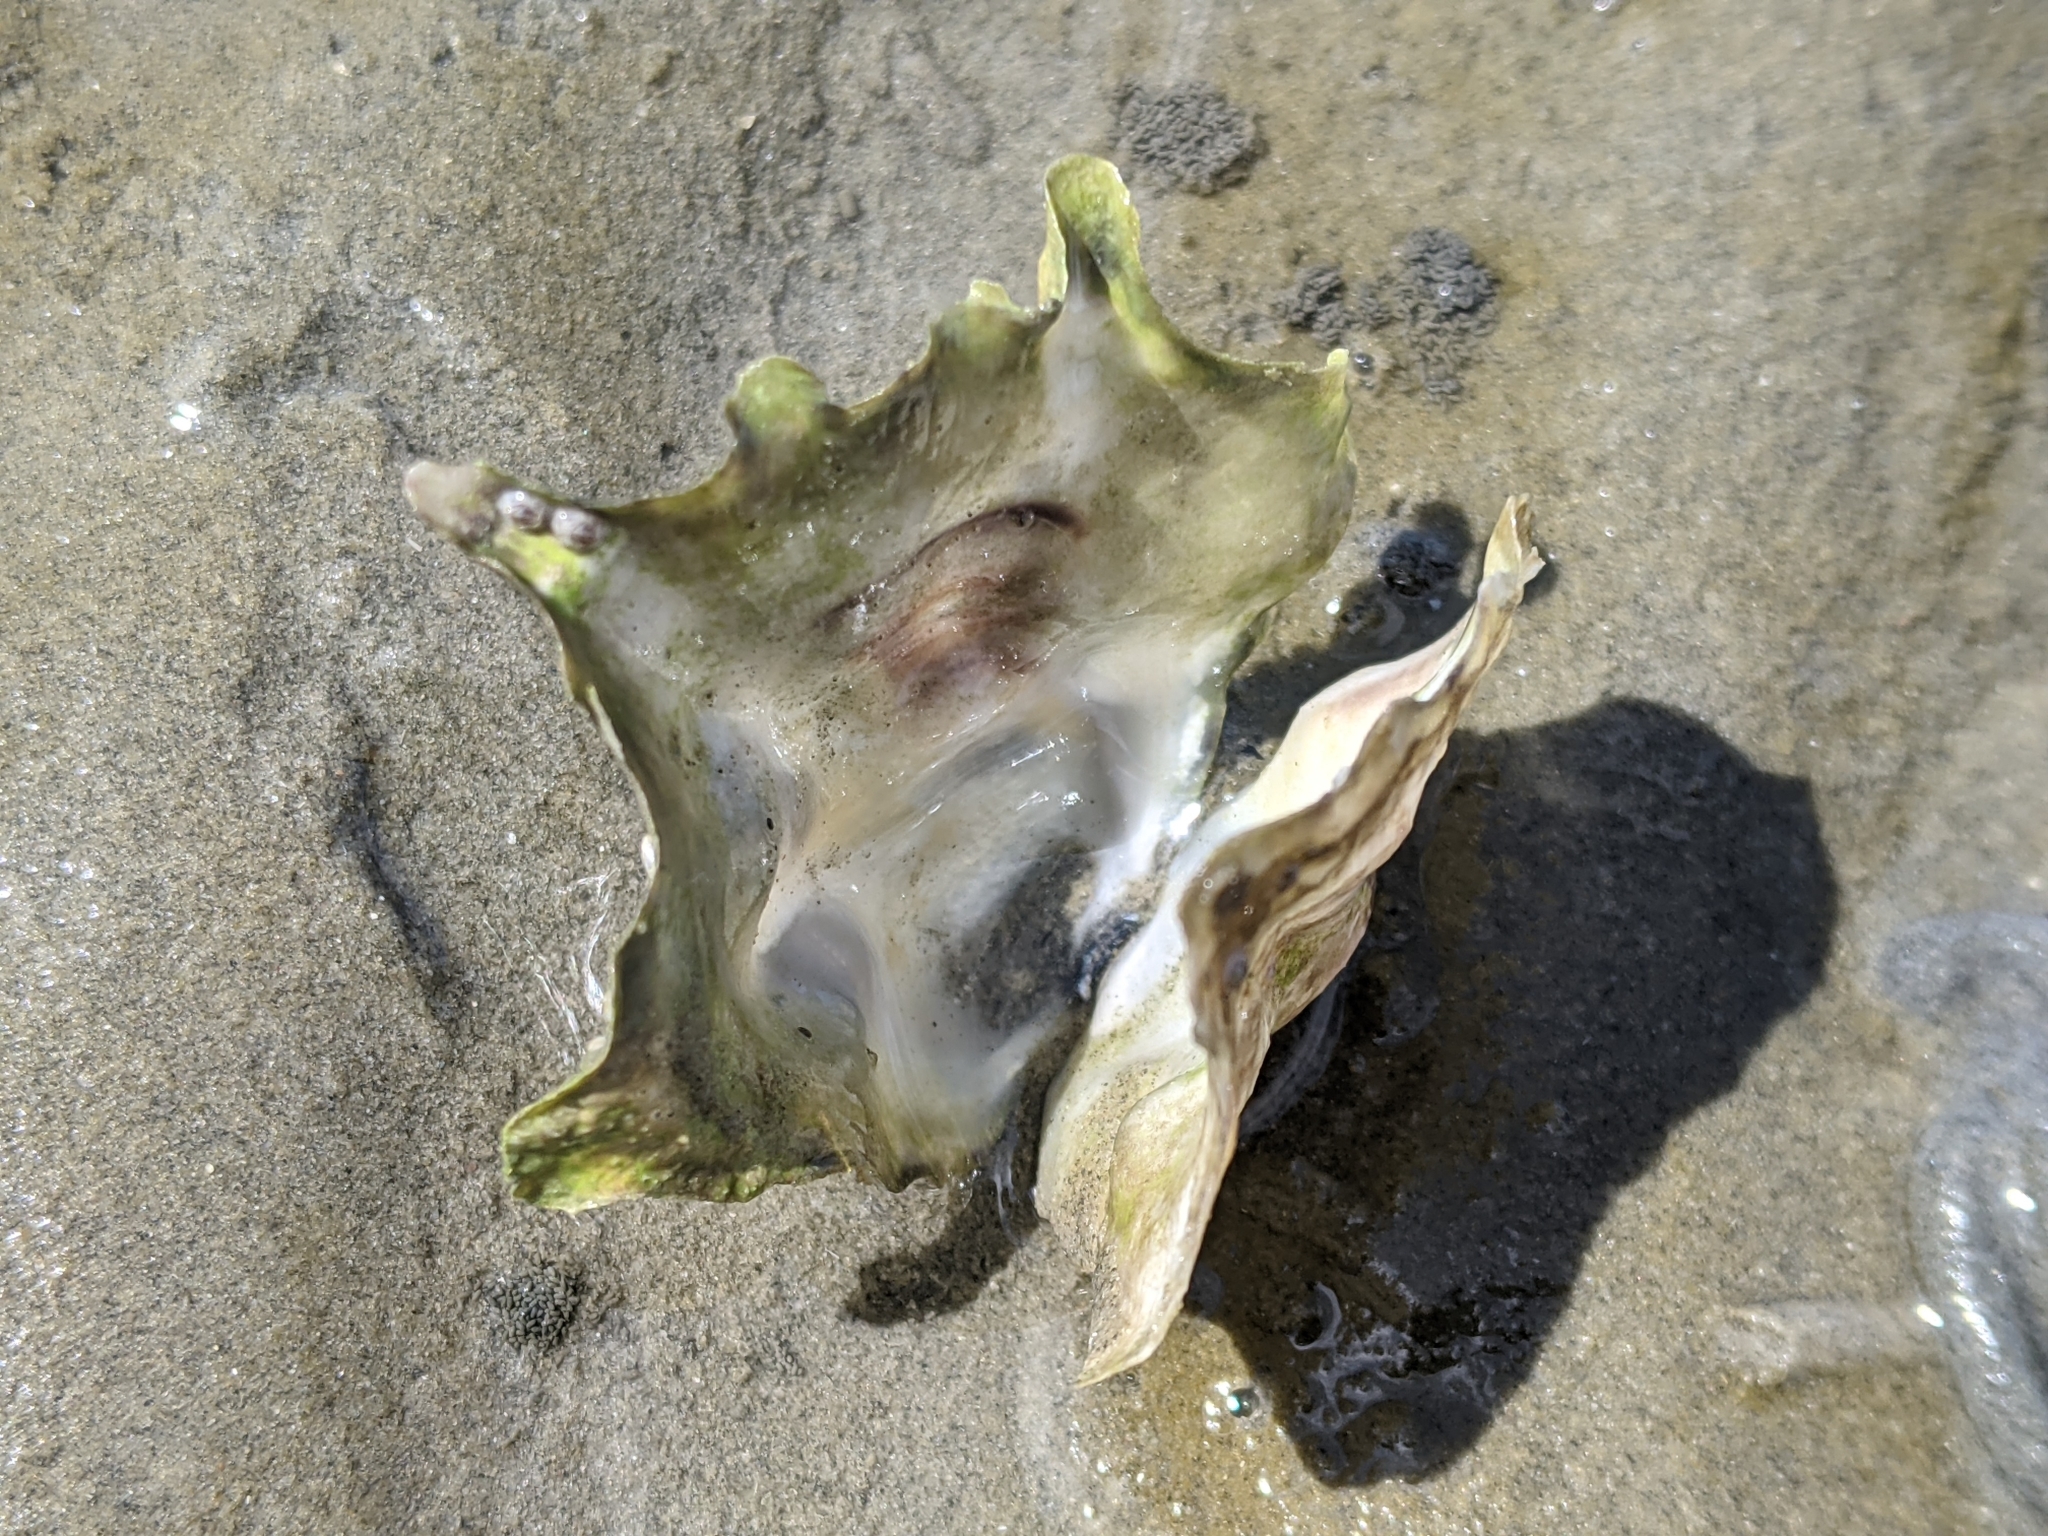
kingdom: Animalia
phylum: Mollusca
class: Bivalvia
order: Ostreida
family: Ostreidae
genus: Magallana
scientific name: Magallana gigas
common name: Pacific oyster
